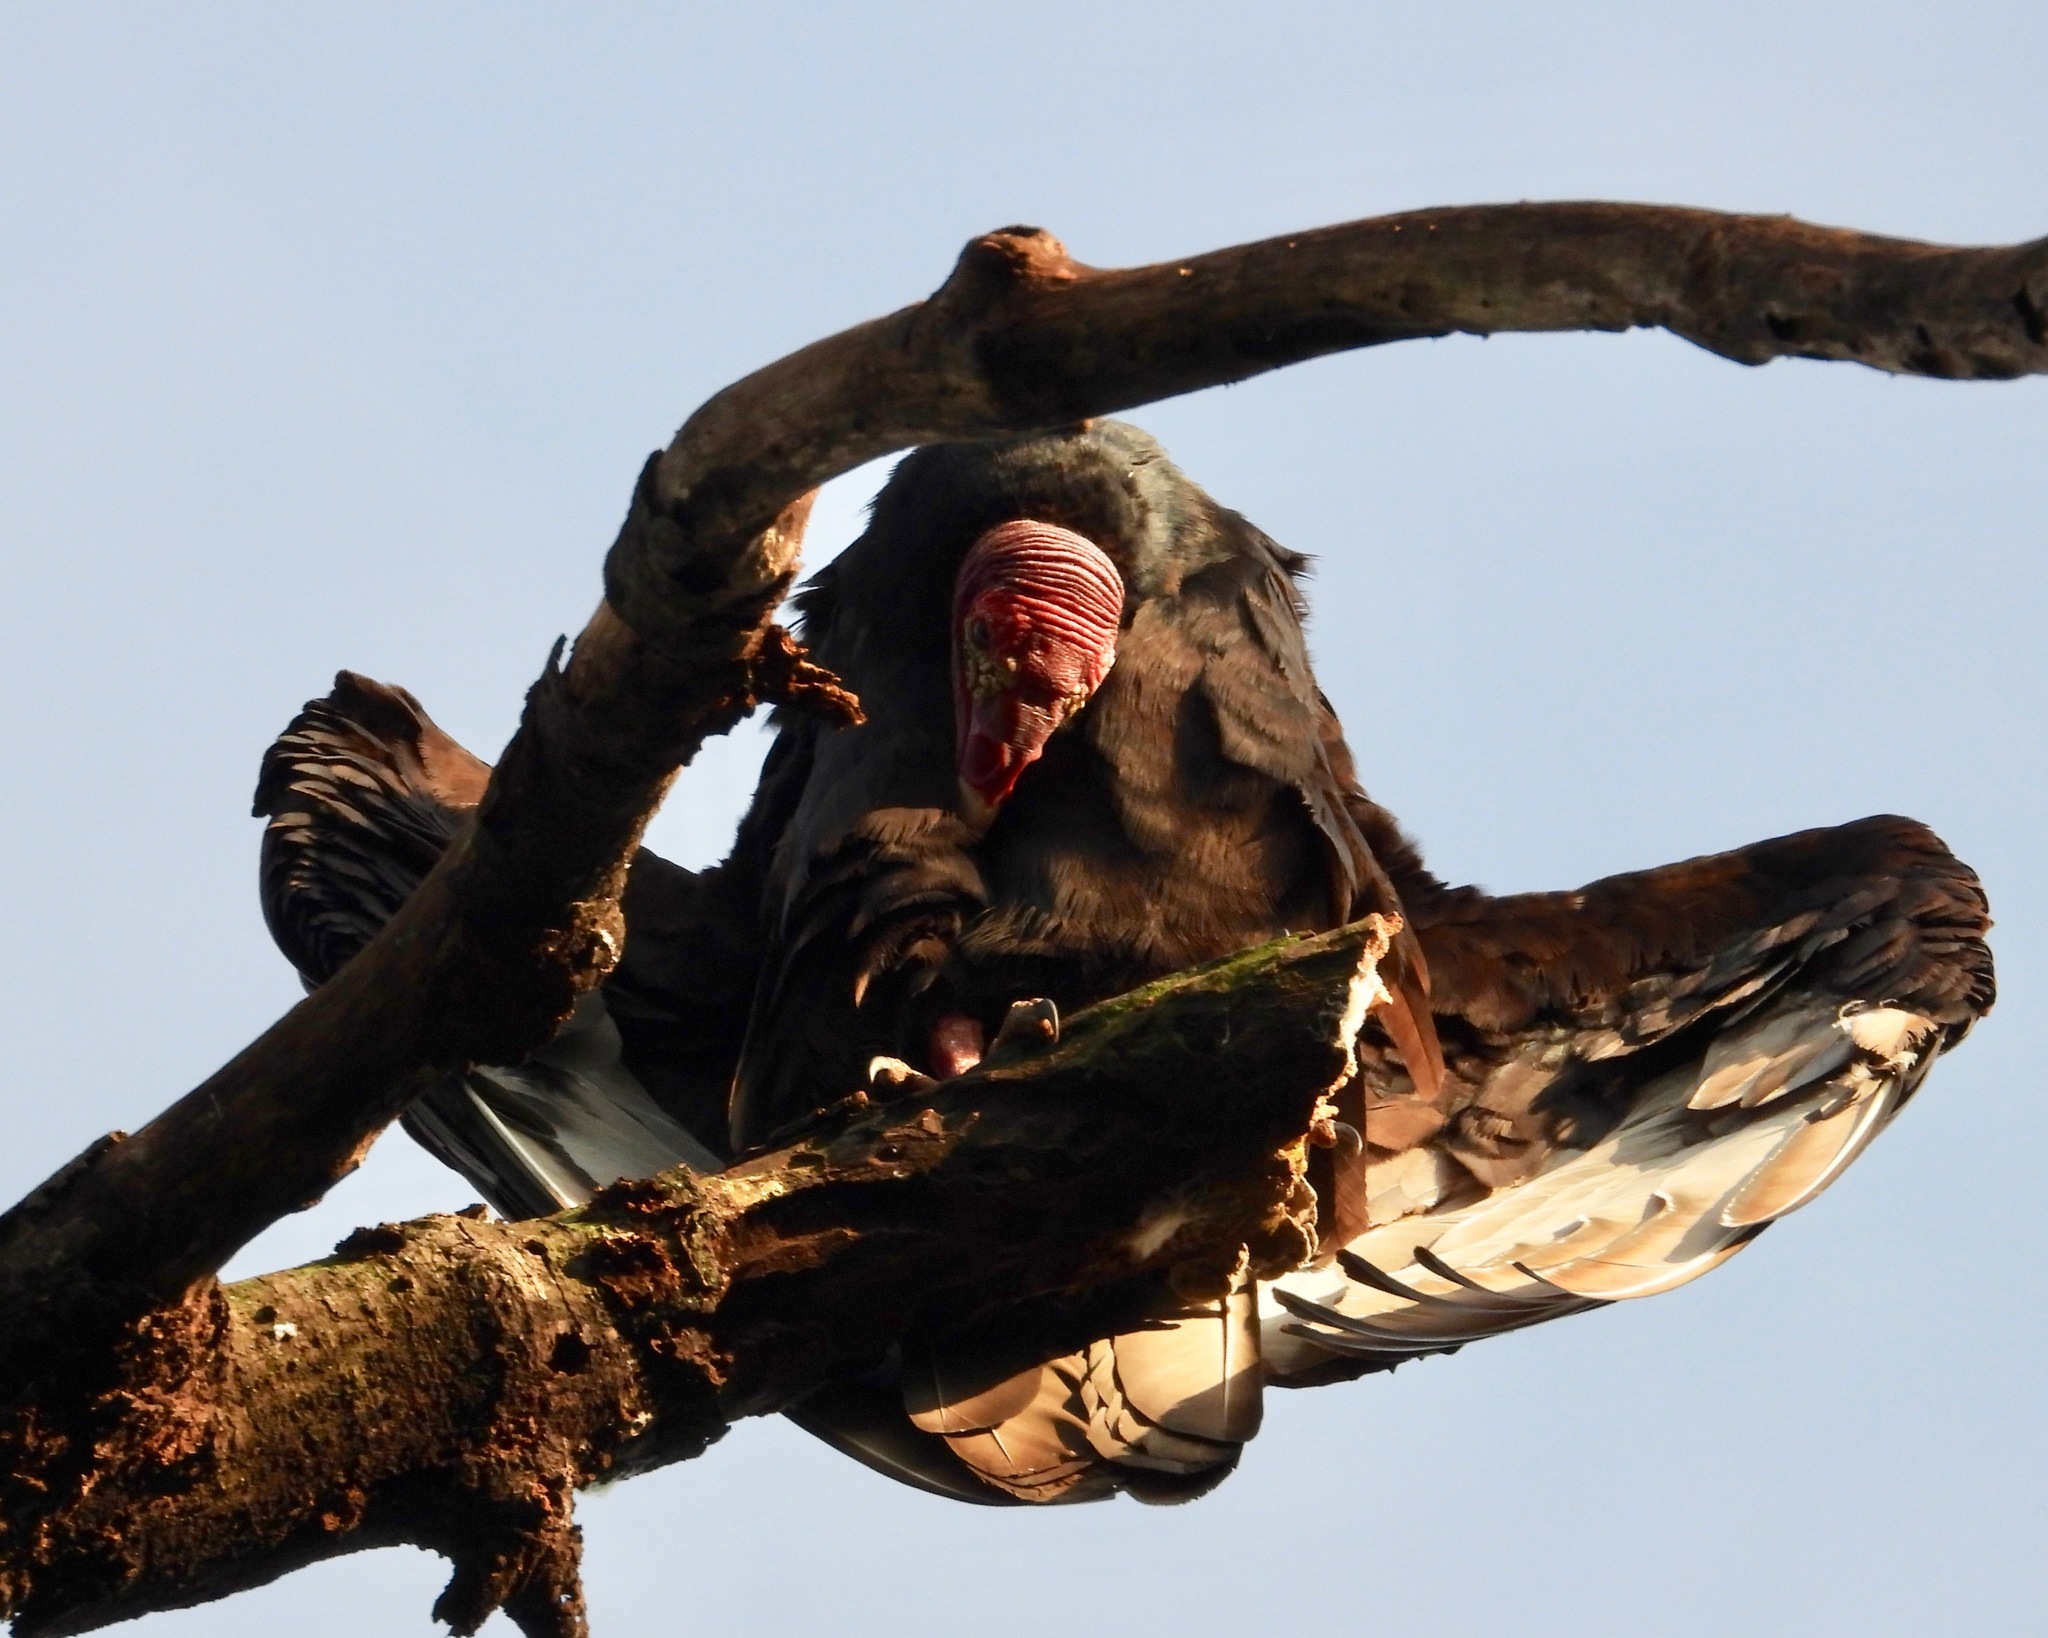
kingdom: Animalia
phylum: Chordata
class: Aves
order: Accipitriformes
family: Cathartidae
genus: Cathartes
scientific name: Cathartes aura
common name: Turkey vulture
